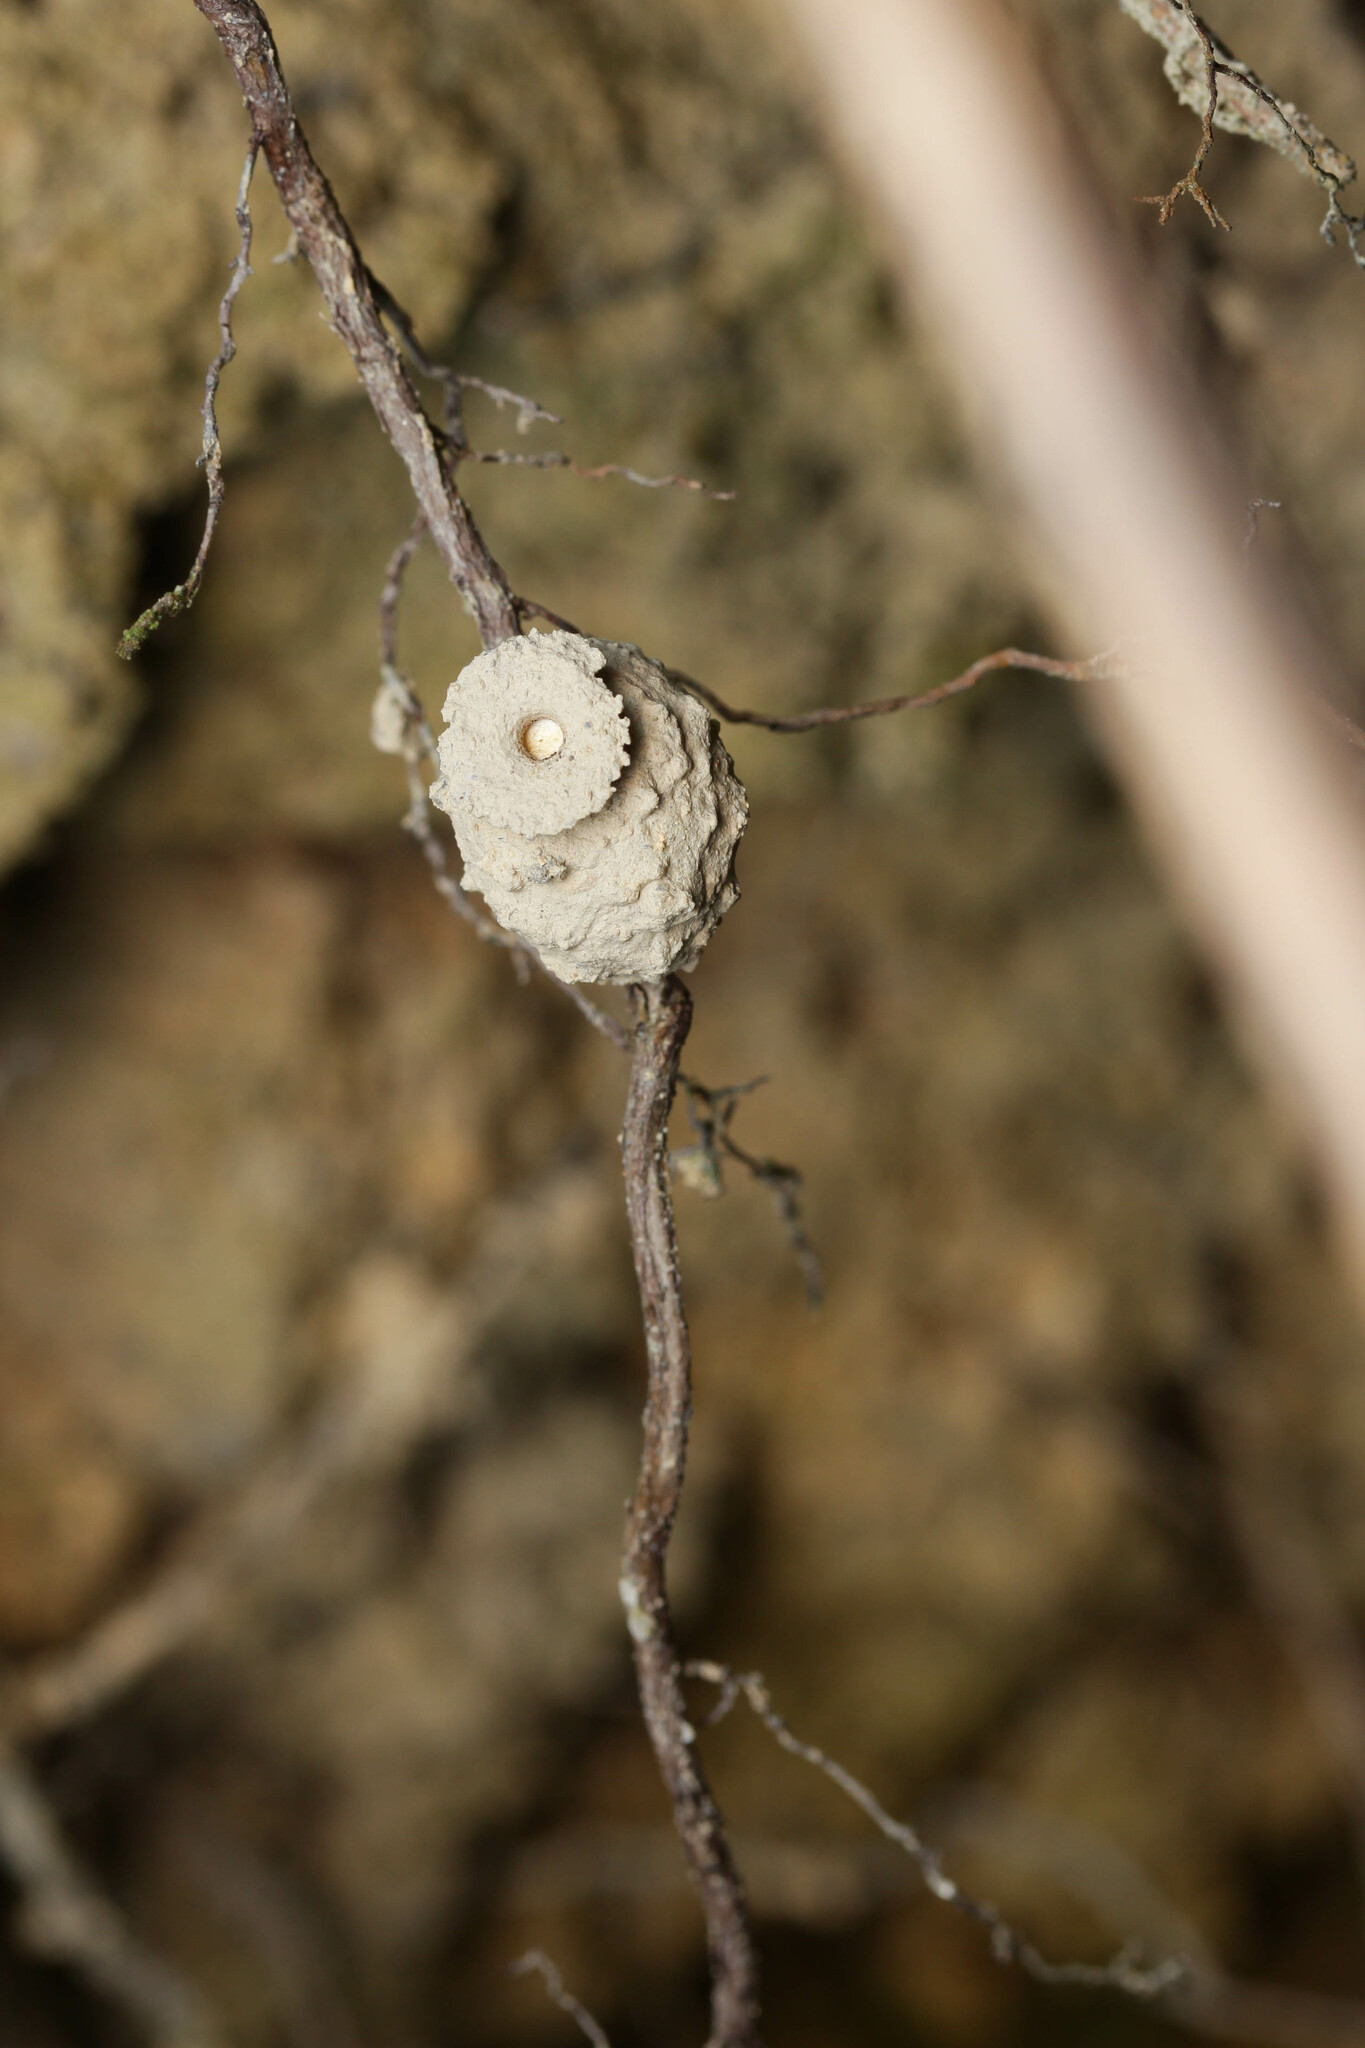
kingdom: Animalia
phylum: Arthropoda
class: Insecta
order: Hymenoptera
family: Eumenidae
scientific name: Eumenidae
